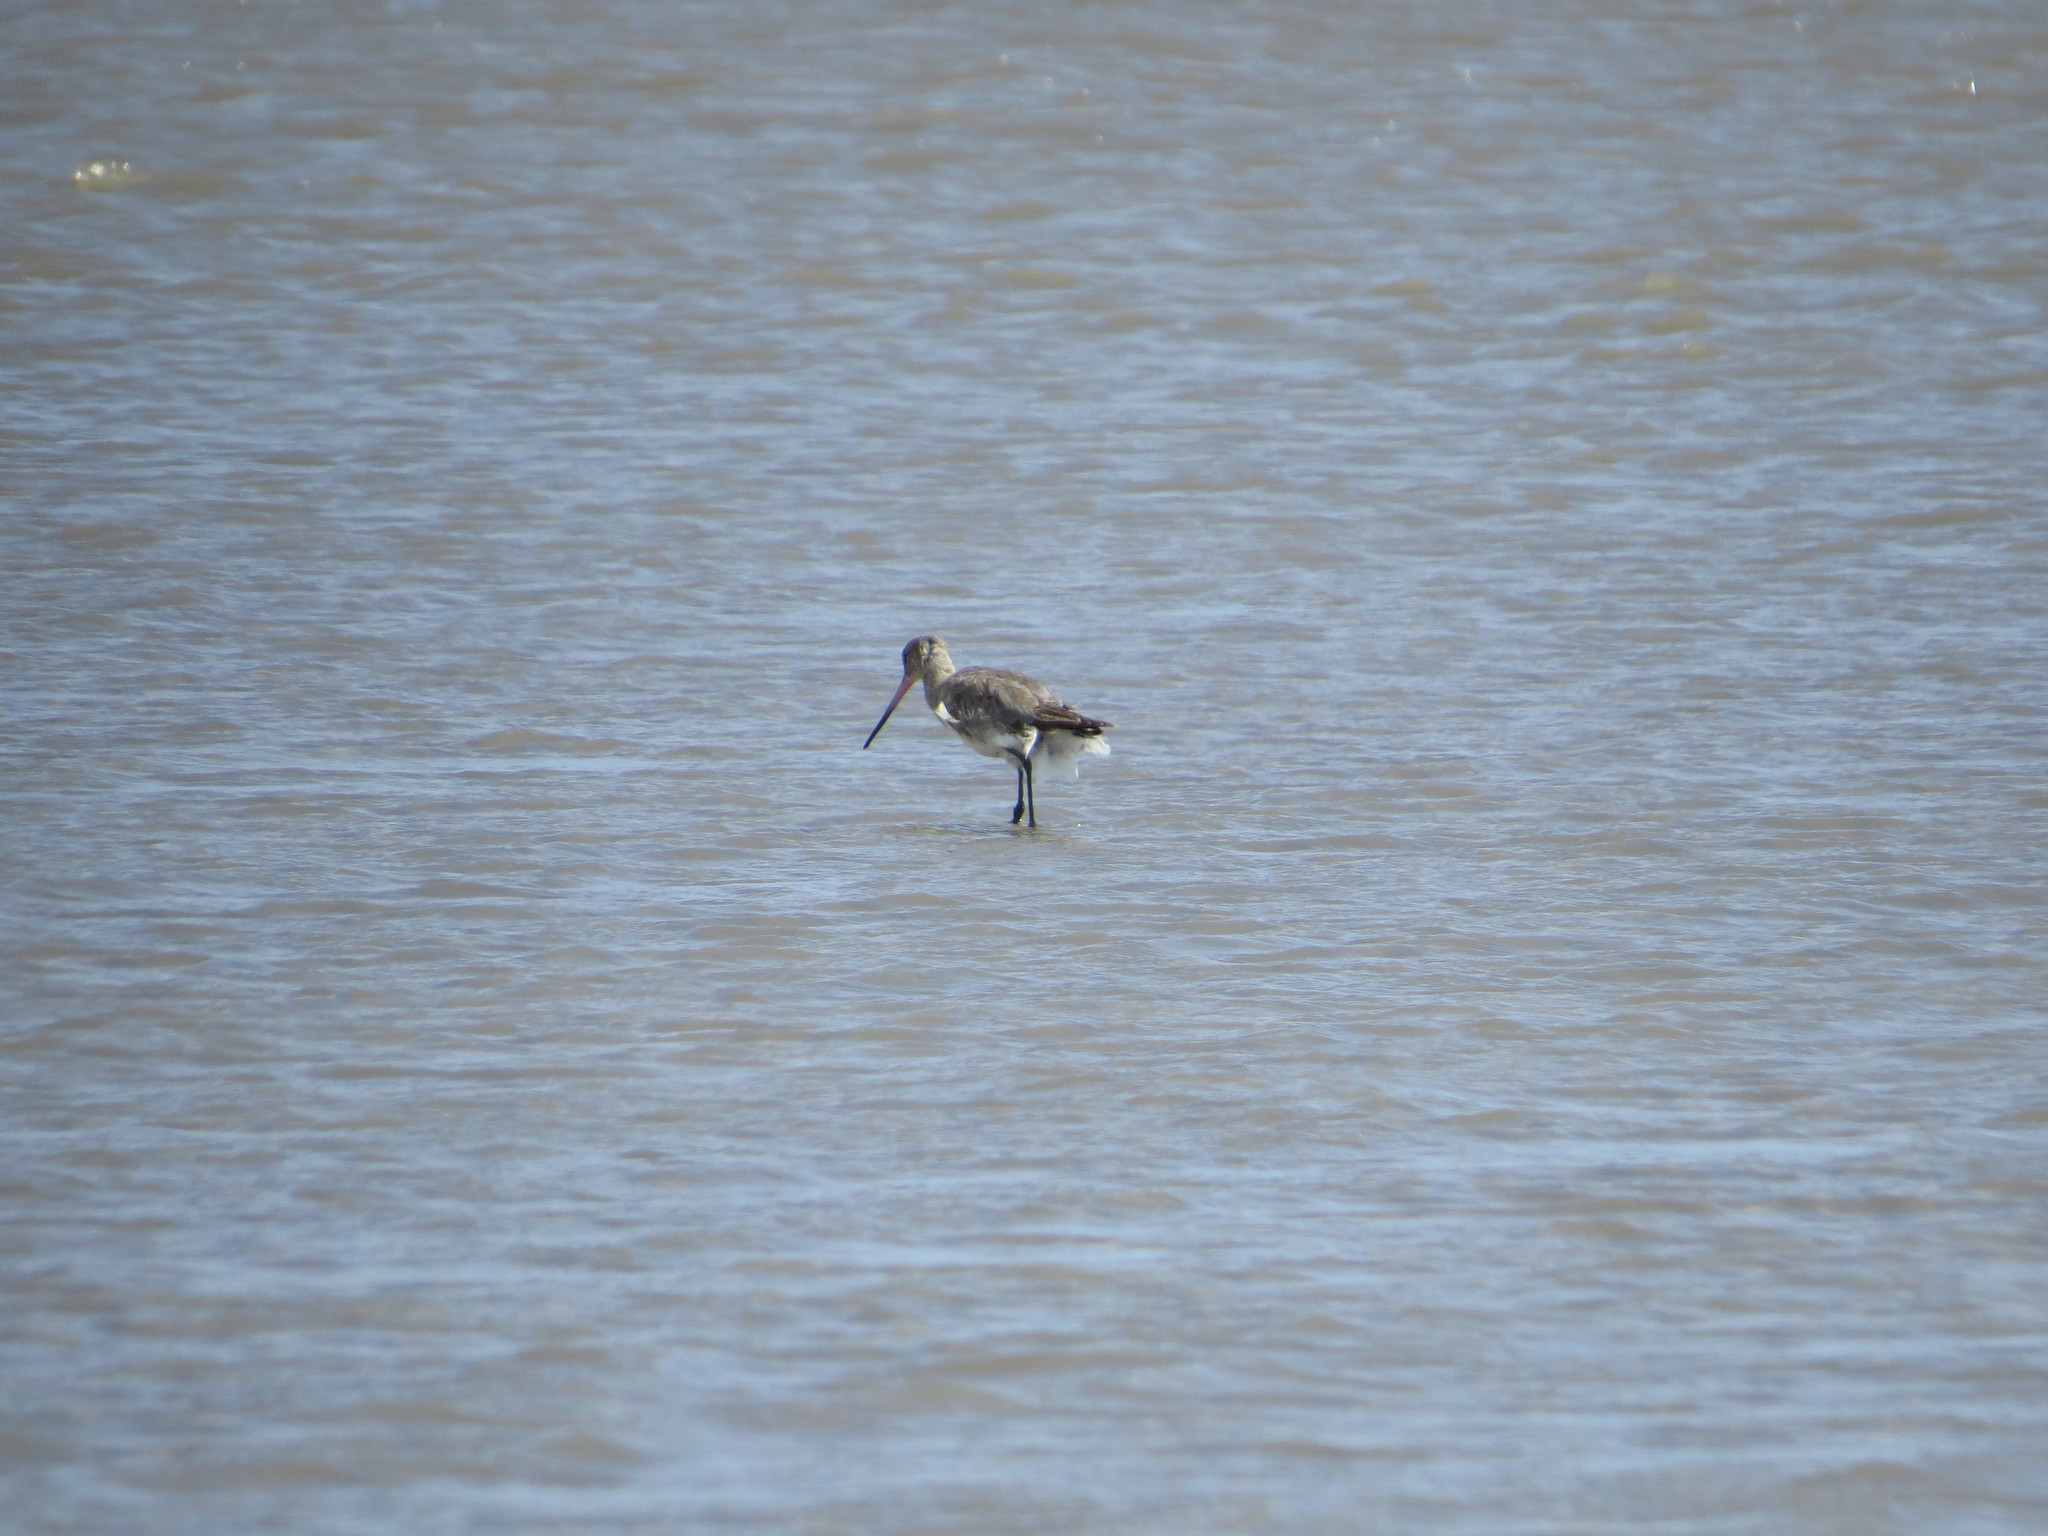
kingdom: Animalia
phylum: Chordata
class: Aves
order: Charadriiformes
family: Scolopacidae
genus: Limosa
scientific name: Limosa haemastica
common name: Hudsonian godwit
